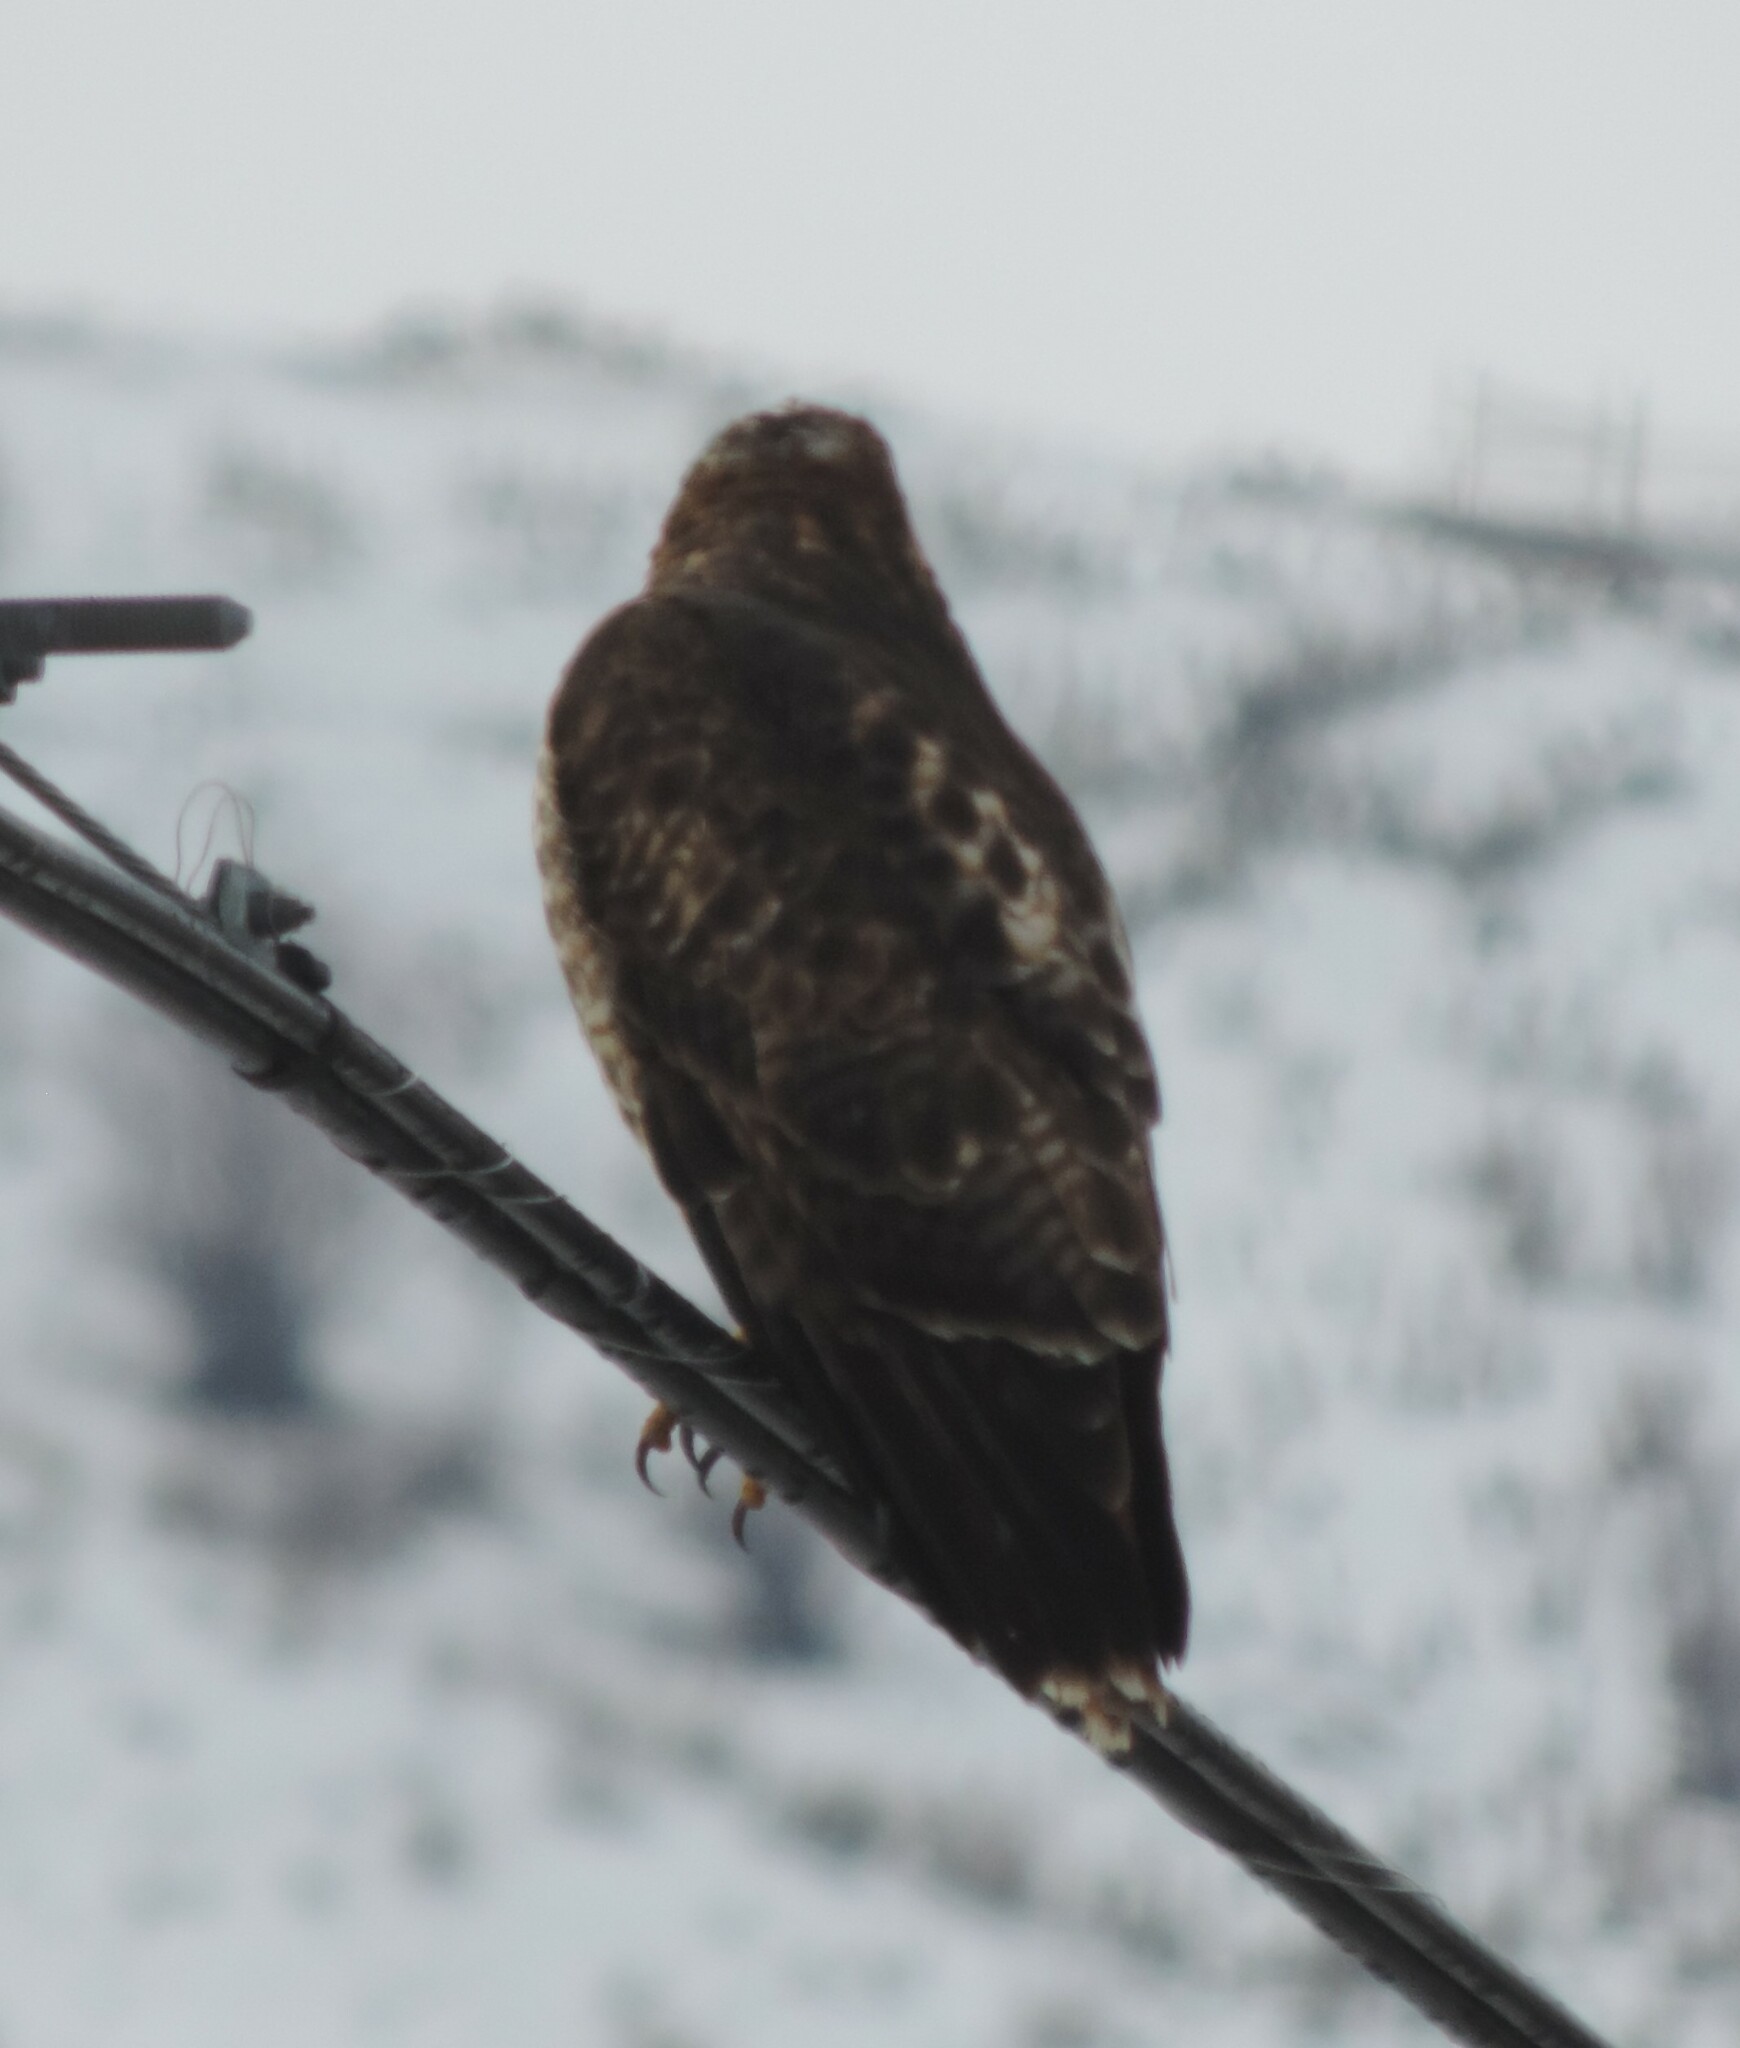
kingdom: Animalia
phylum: Chordata
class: Aves
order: Accipitriformes
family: Accipitridae
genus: Buteo
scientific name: Buteo jamaicensis
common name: Red-tailed hawk
